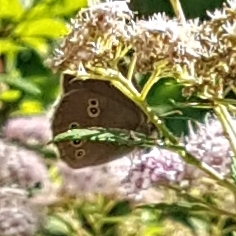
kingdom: Animalia
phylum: Arthropoda
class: Insecta
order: Lepidoptera
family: Nymphalidae
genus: Aphantopus
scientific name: Aphantopus hyperantus
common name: Ringlet
